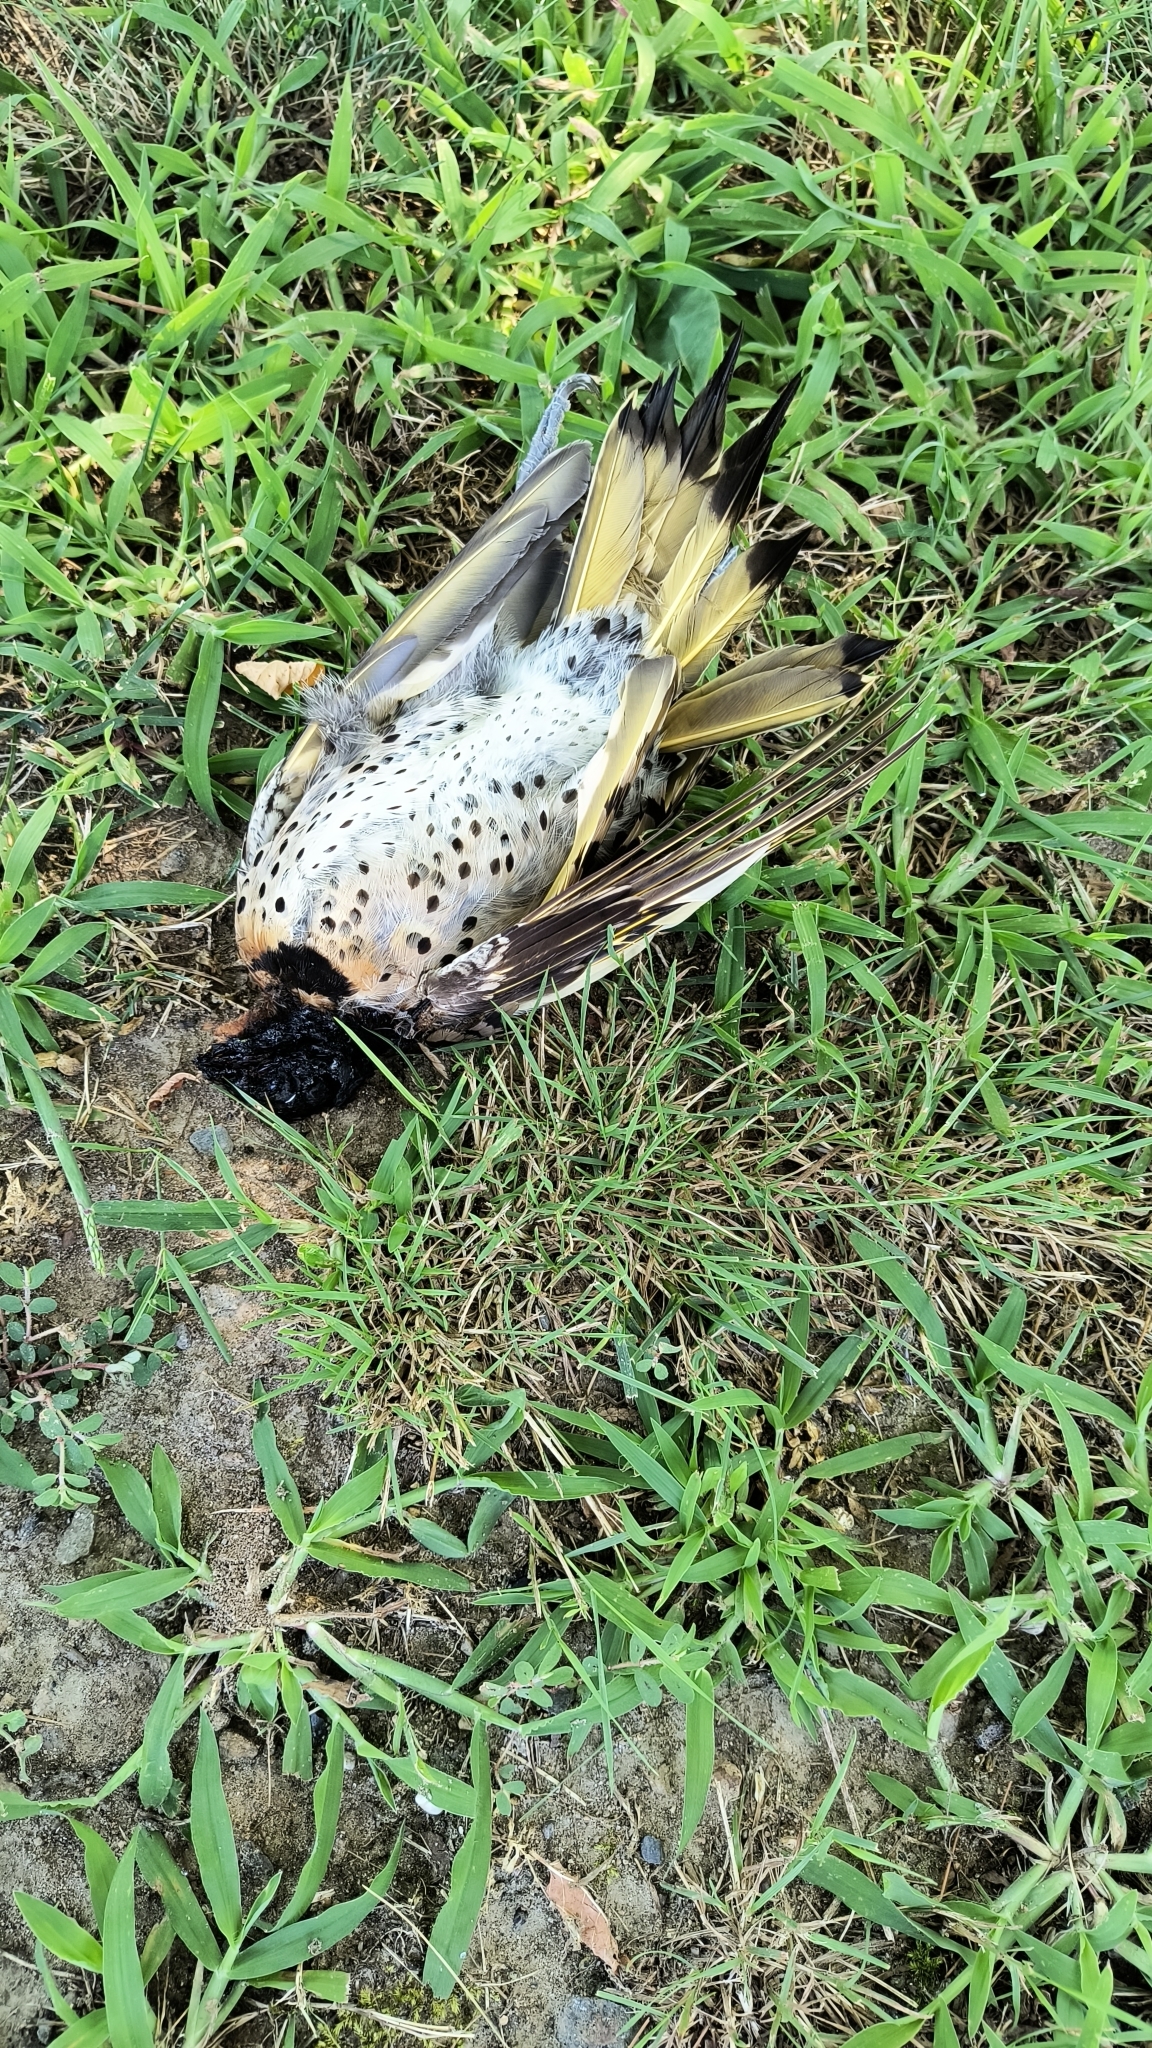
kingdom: Animalia
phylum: Chordata
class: Aves
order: Piciformes
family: Picidae
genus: Colaptes
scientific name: Colaptes auratus
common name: Northern flicker
